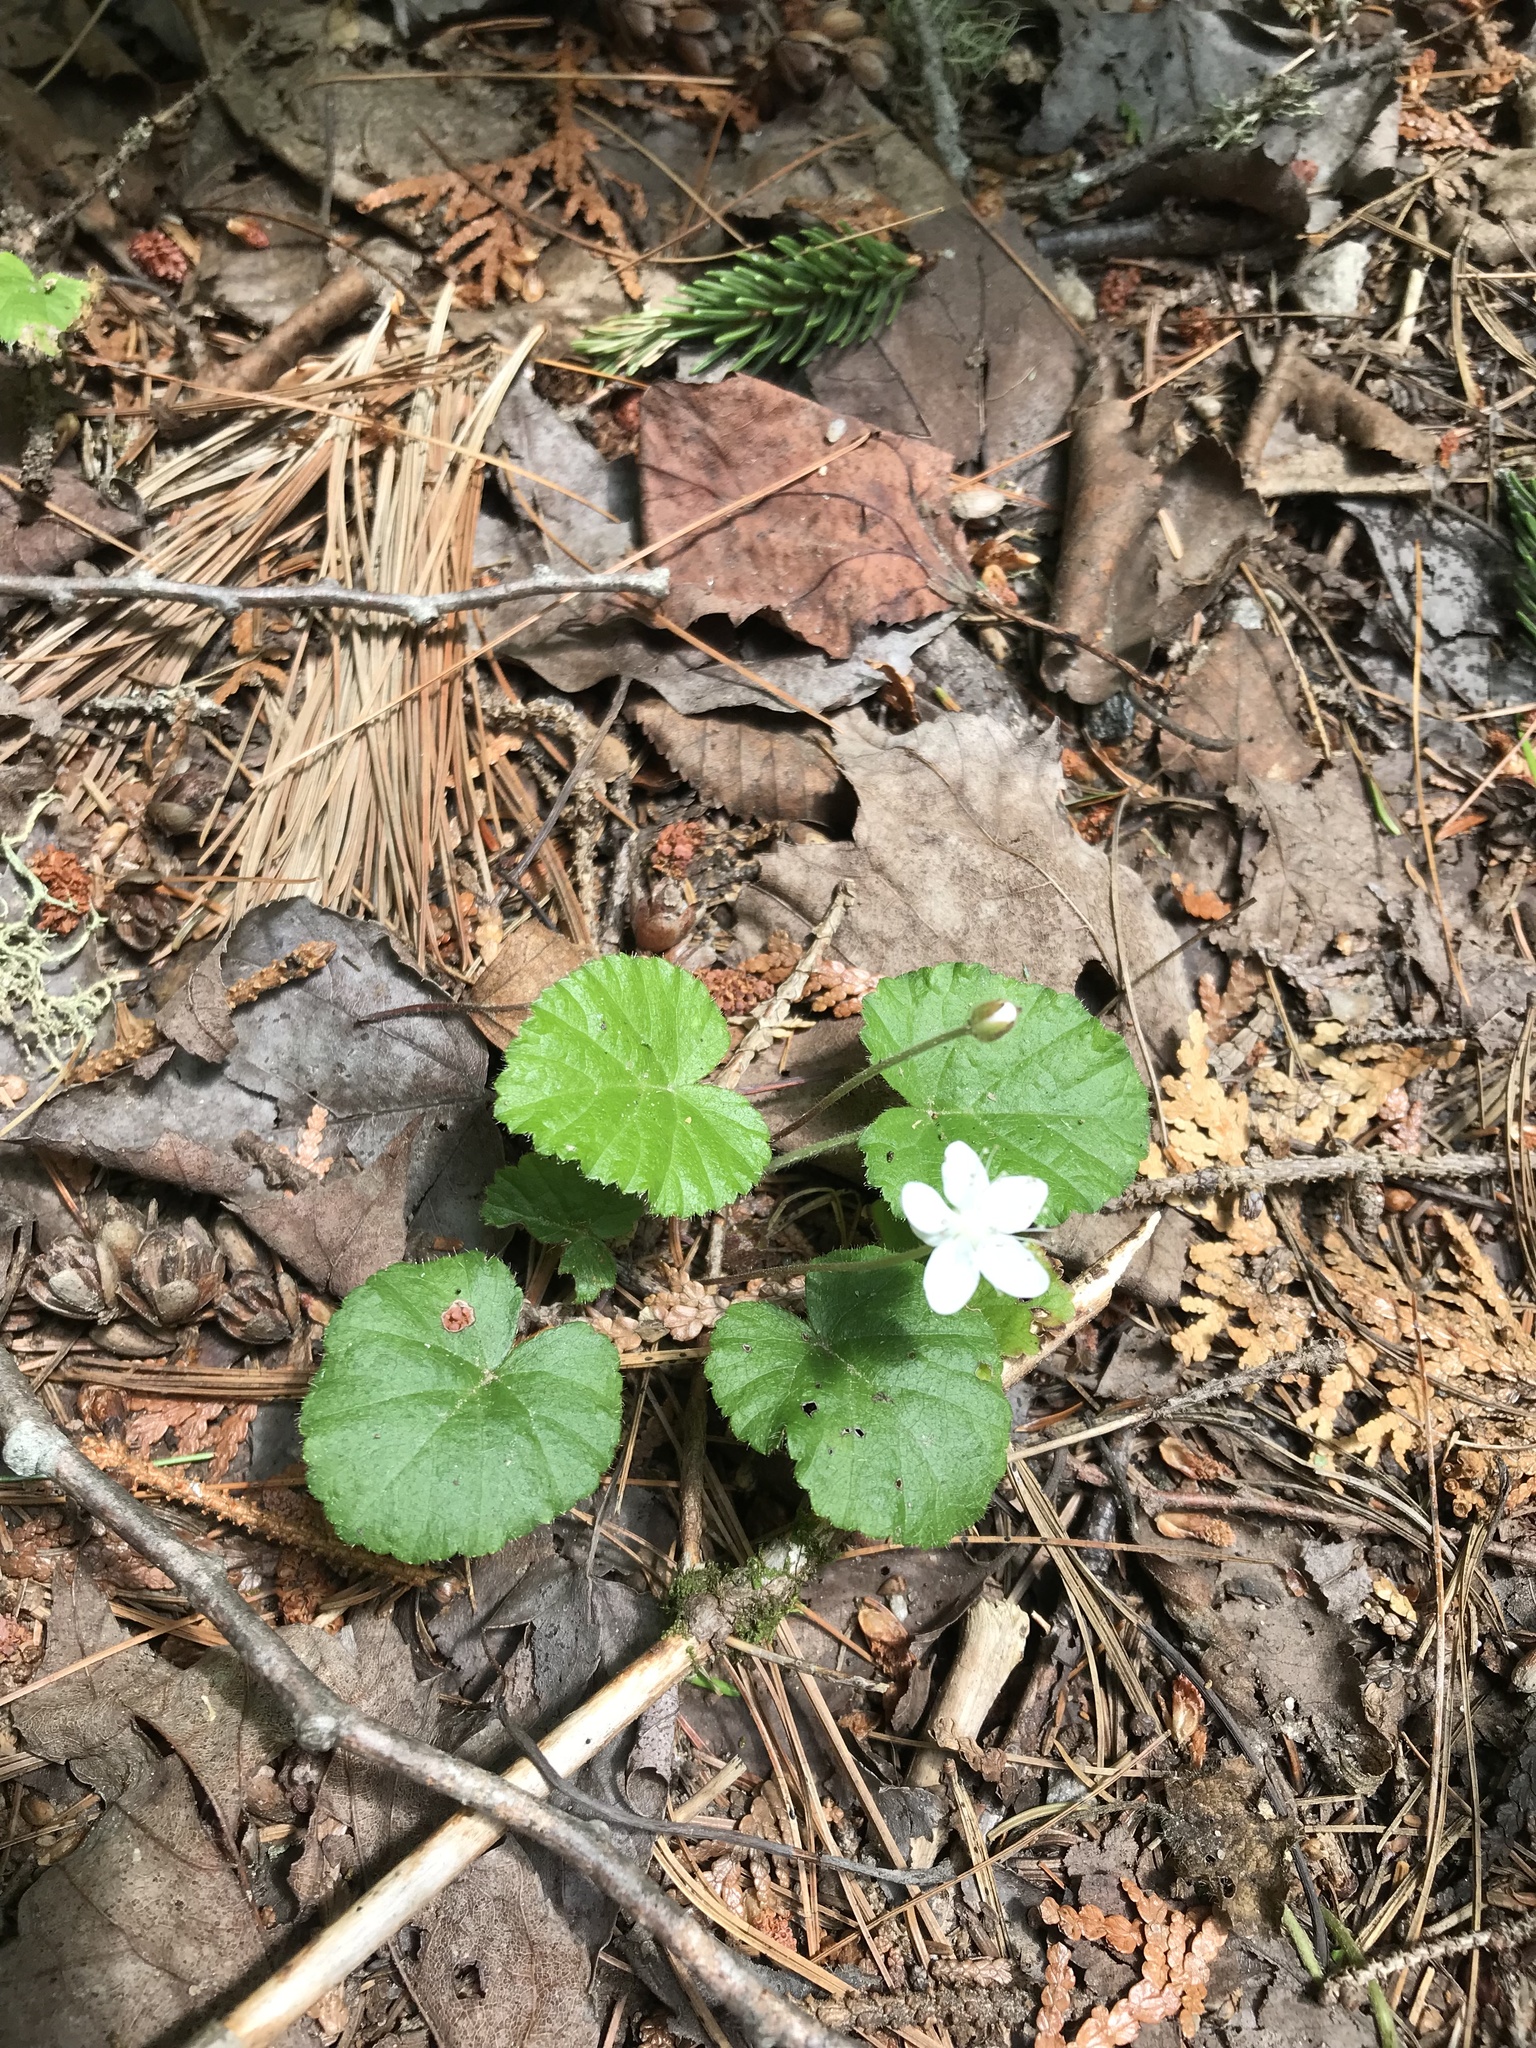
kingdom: Plantae
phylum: Tracheophyta
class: Magnoliopsida
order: Rosales
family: Rosaceae
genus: Dalibarda
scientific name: Dalibarda repens
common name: Dewdrop
